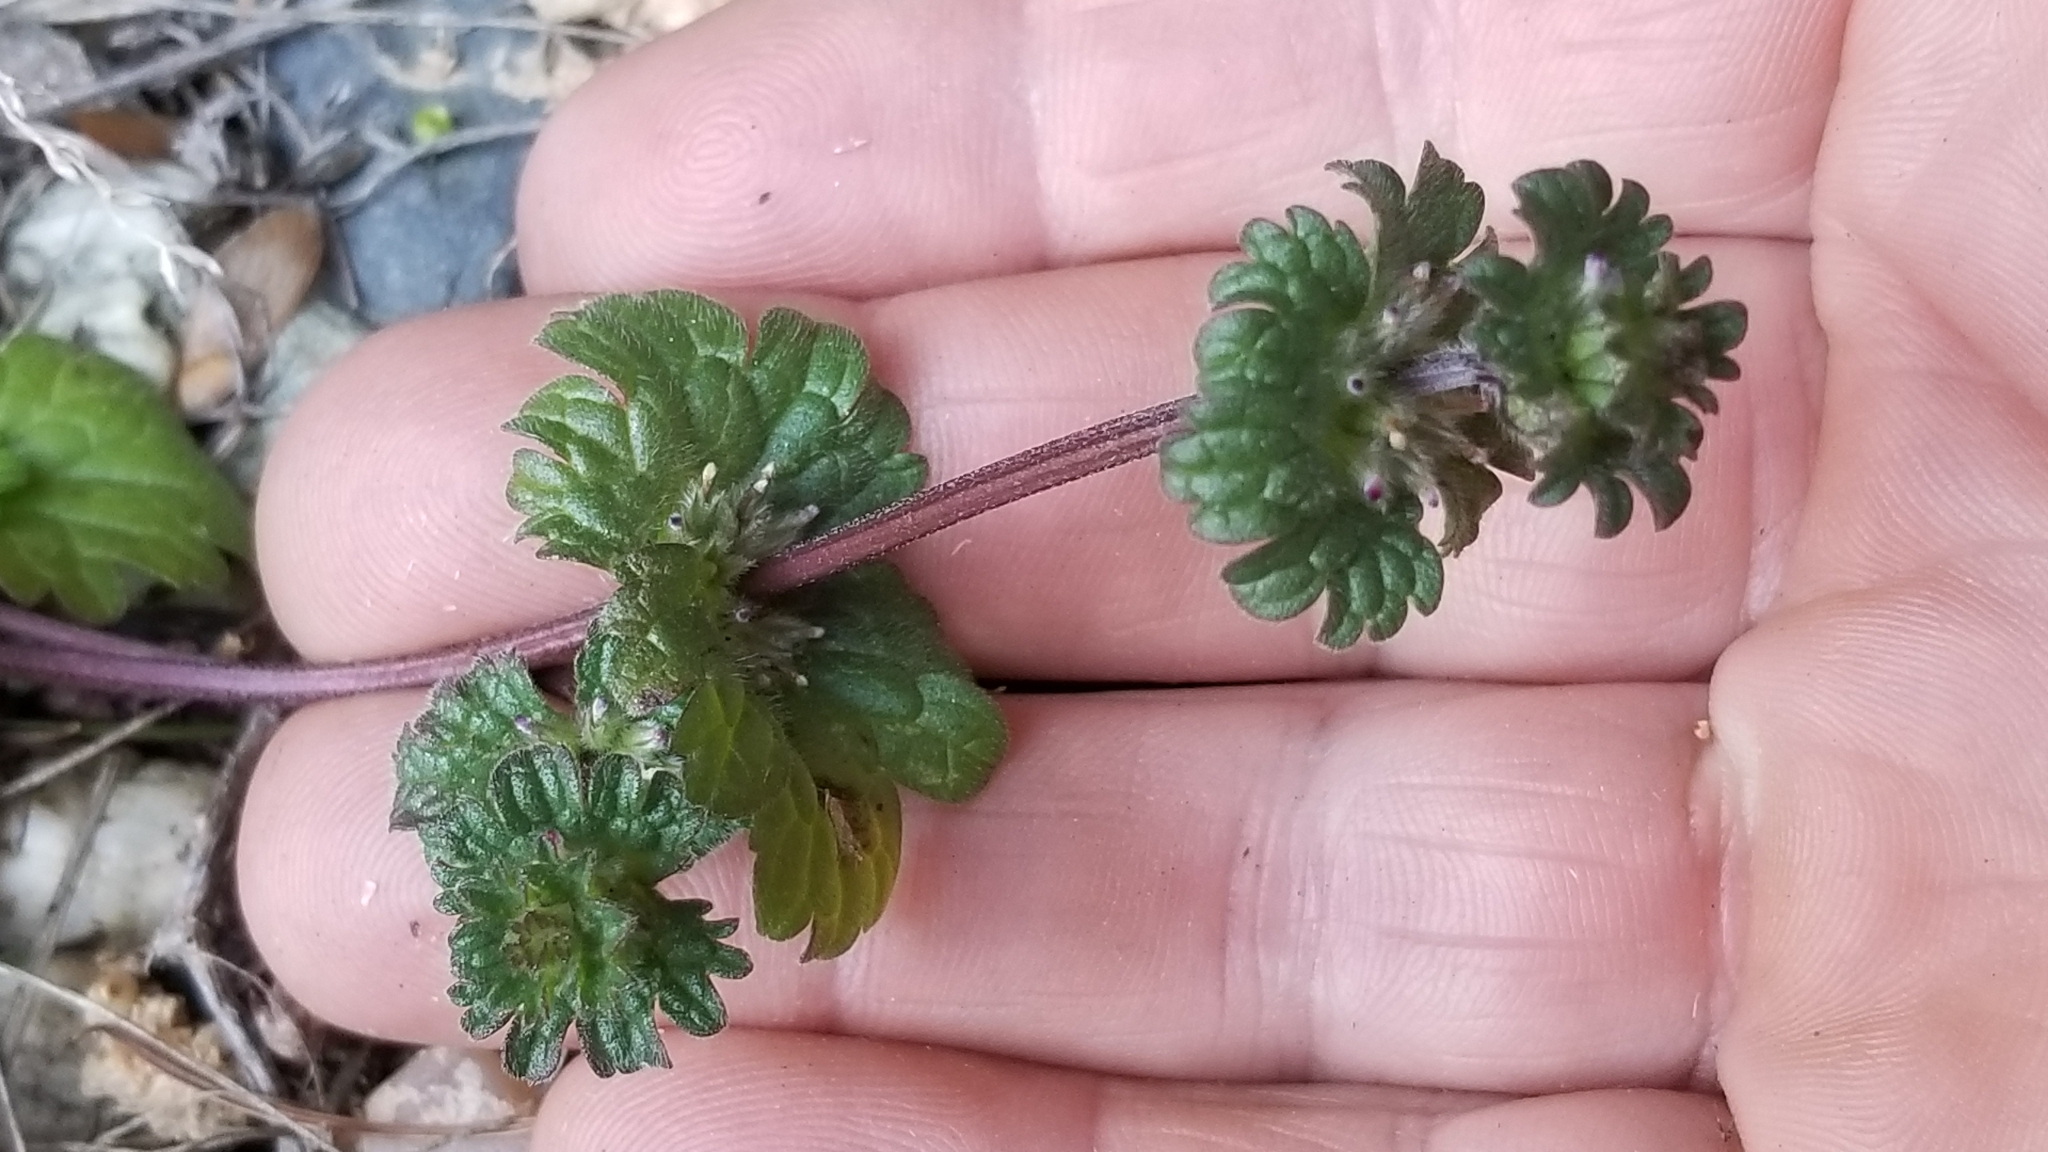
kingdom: Plantae
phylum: Tracheophyta
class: Magnoliopsida
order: Lamiales
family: Lamiaceae
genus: Lamium
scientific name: Lamium amplexicaule
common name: Henbit dead-nettle
